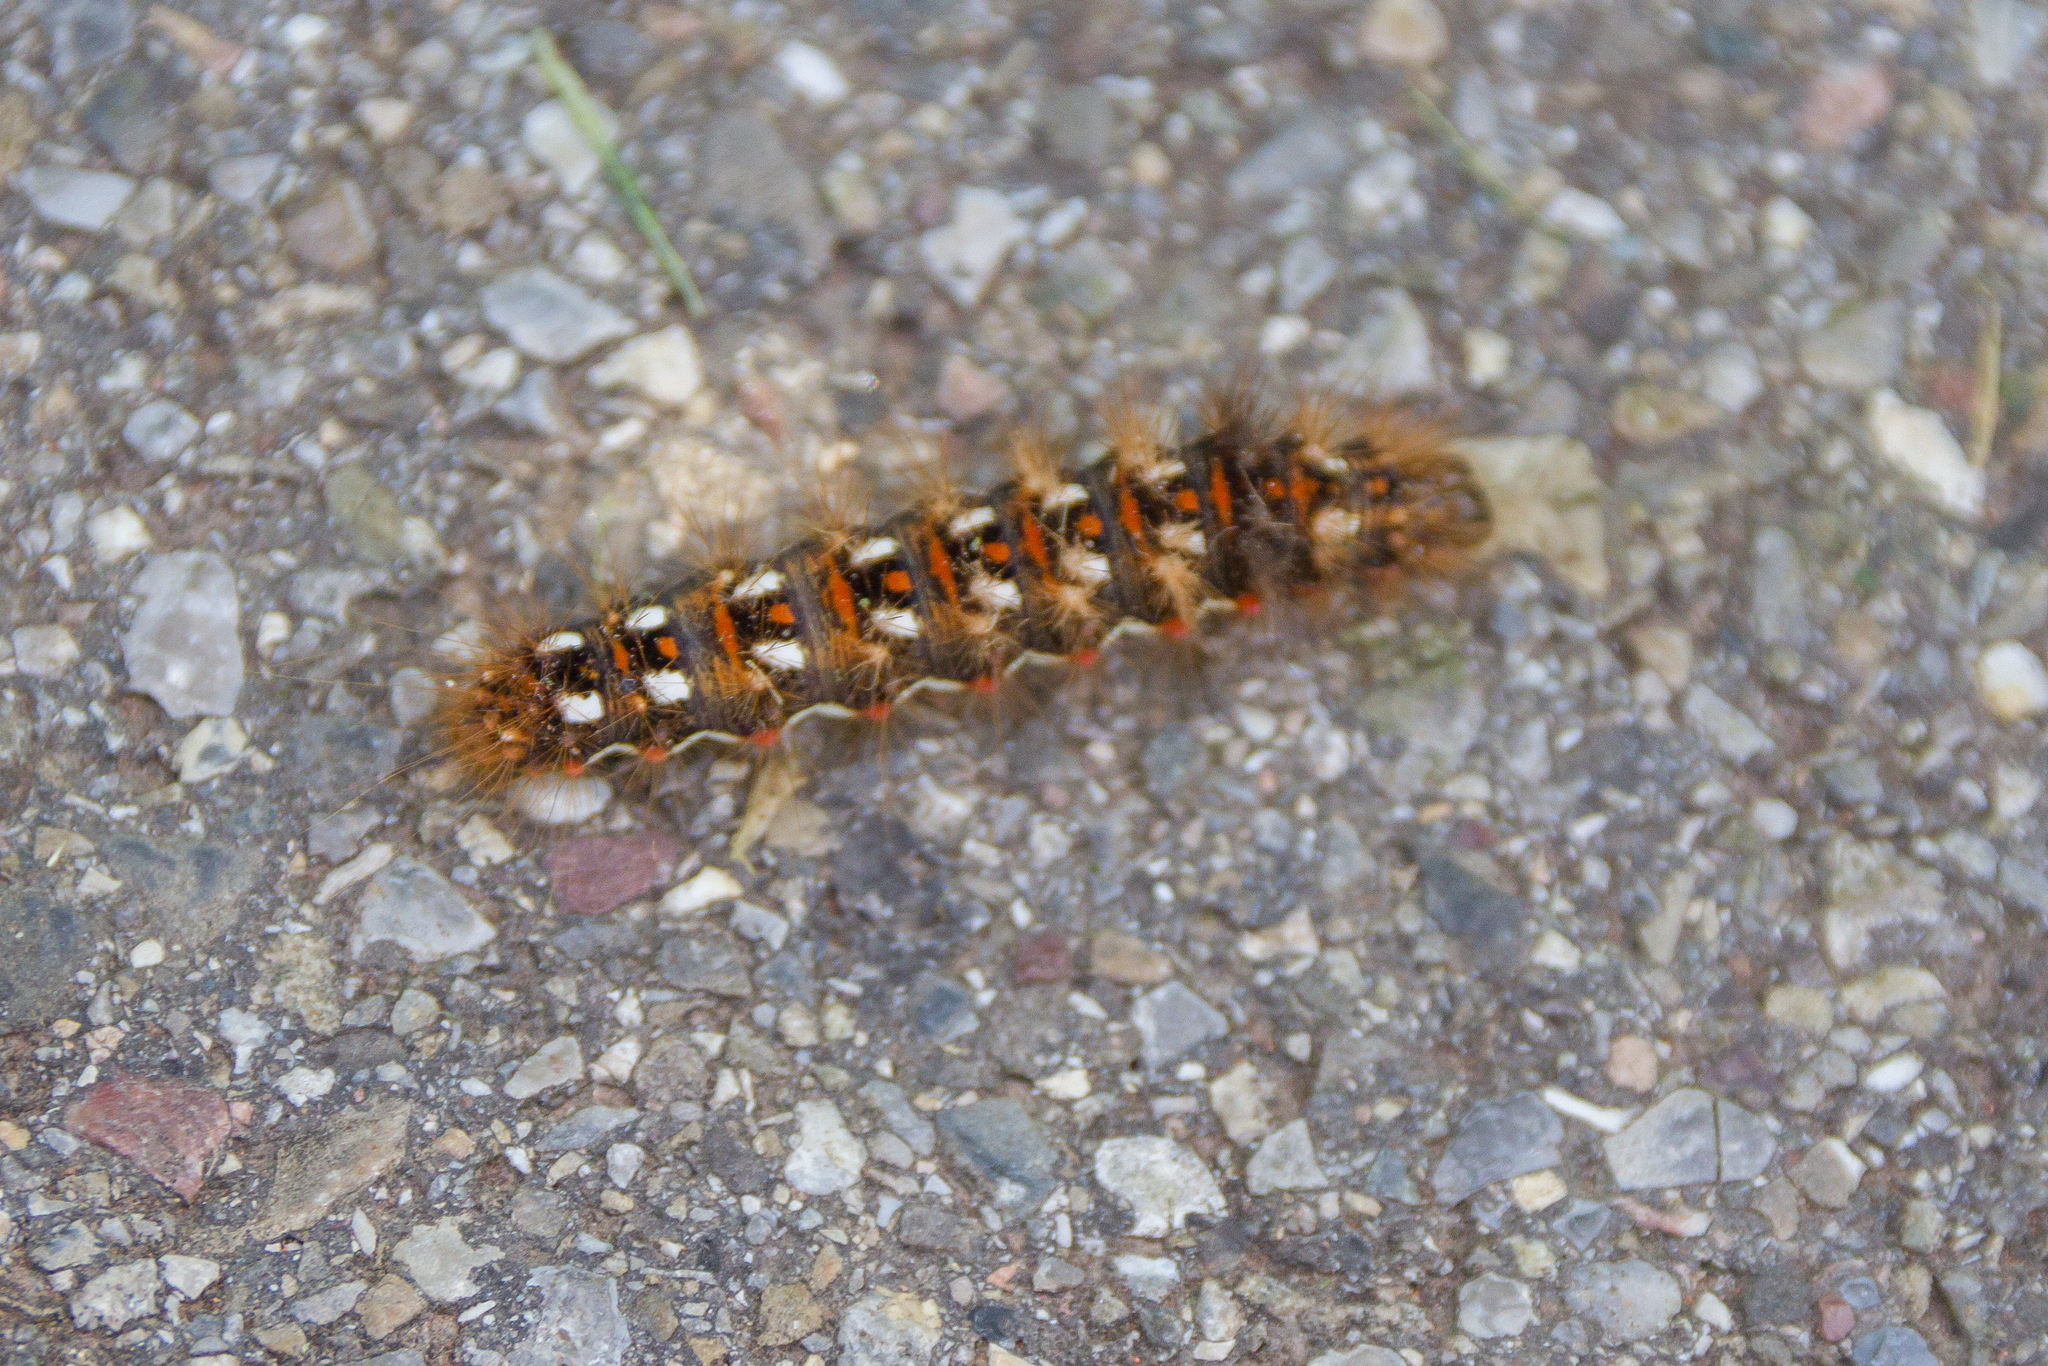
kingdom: Animalia
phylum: Arthropoda
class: Insecta
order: Lepidoptera
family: Noctuidae
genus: Acronicta
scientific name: Acronicta rumicis
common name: Knot grass
